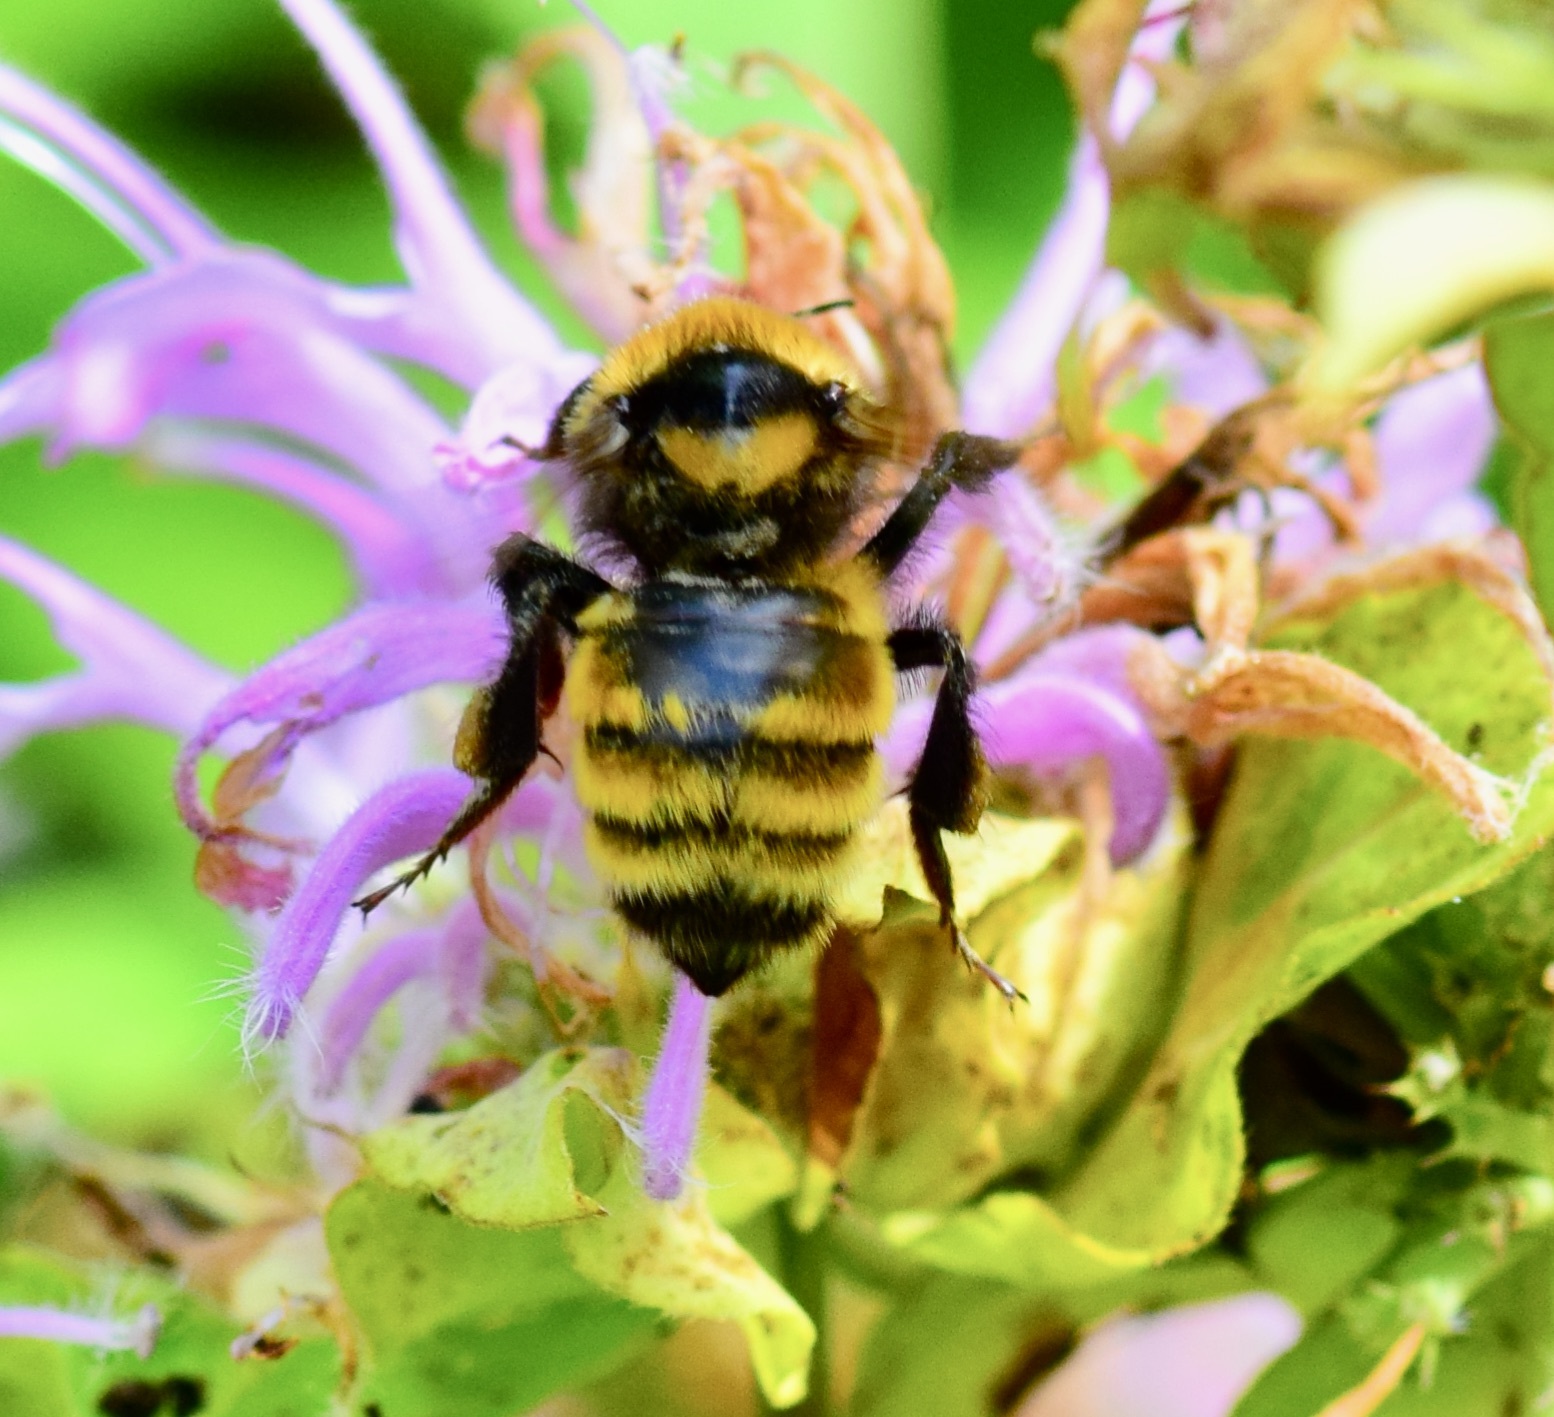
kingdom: Animalia
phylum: Arthropoda
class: Insecta
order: Hymenoptera
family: Apidae
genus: Bombus
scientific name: Bombus borealis
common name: Northern amber bumble bee
